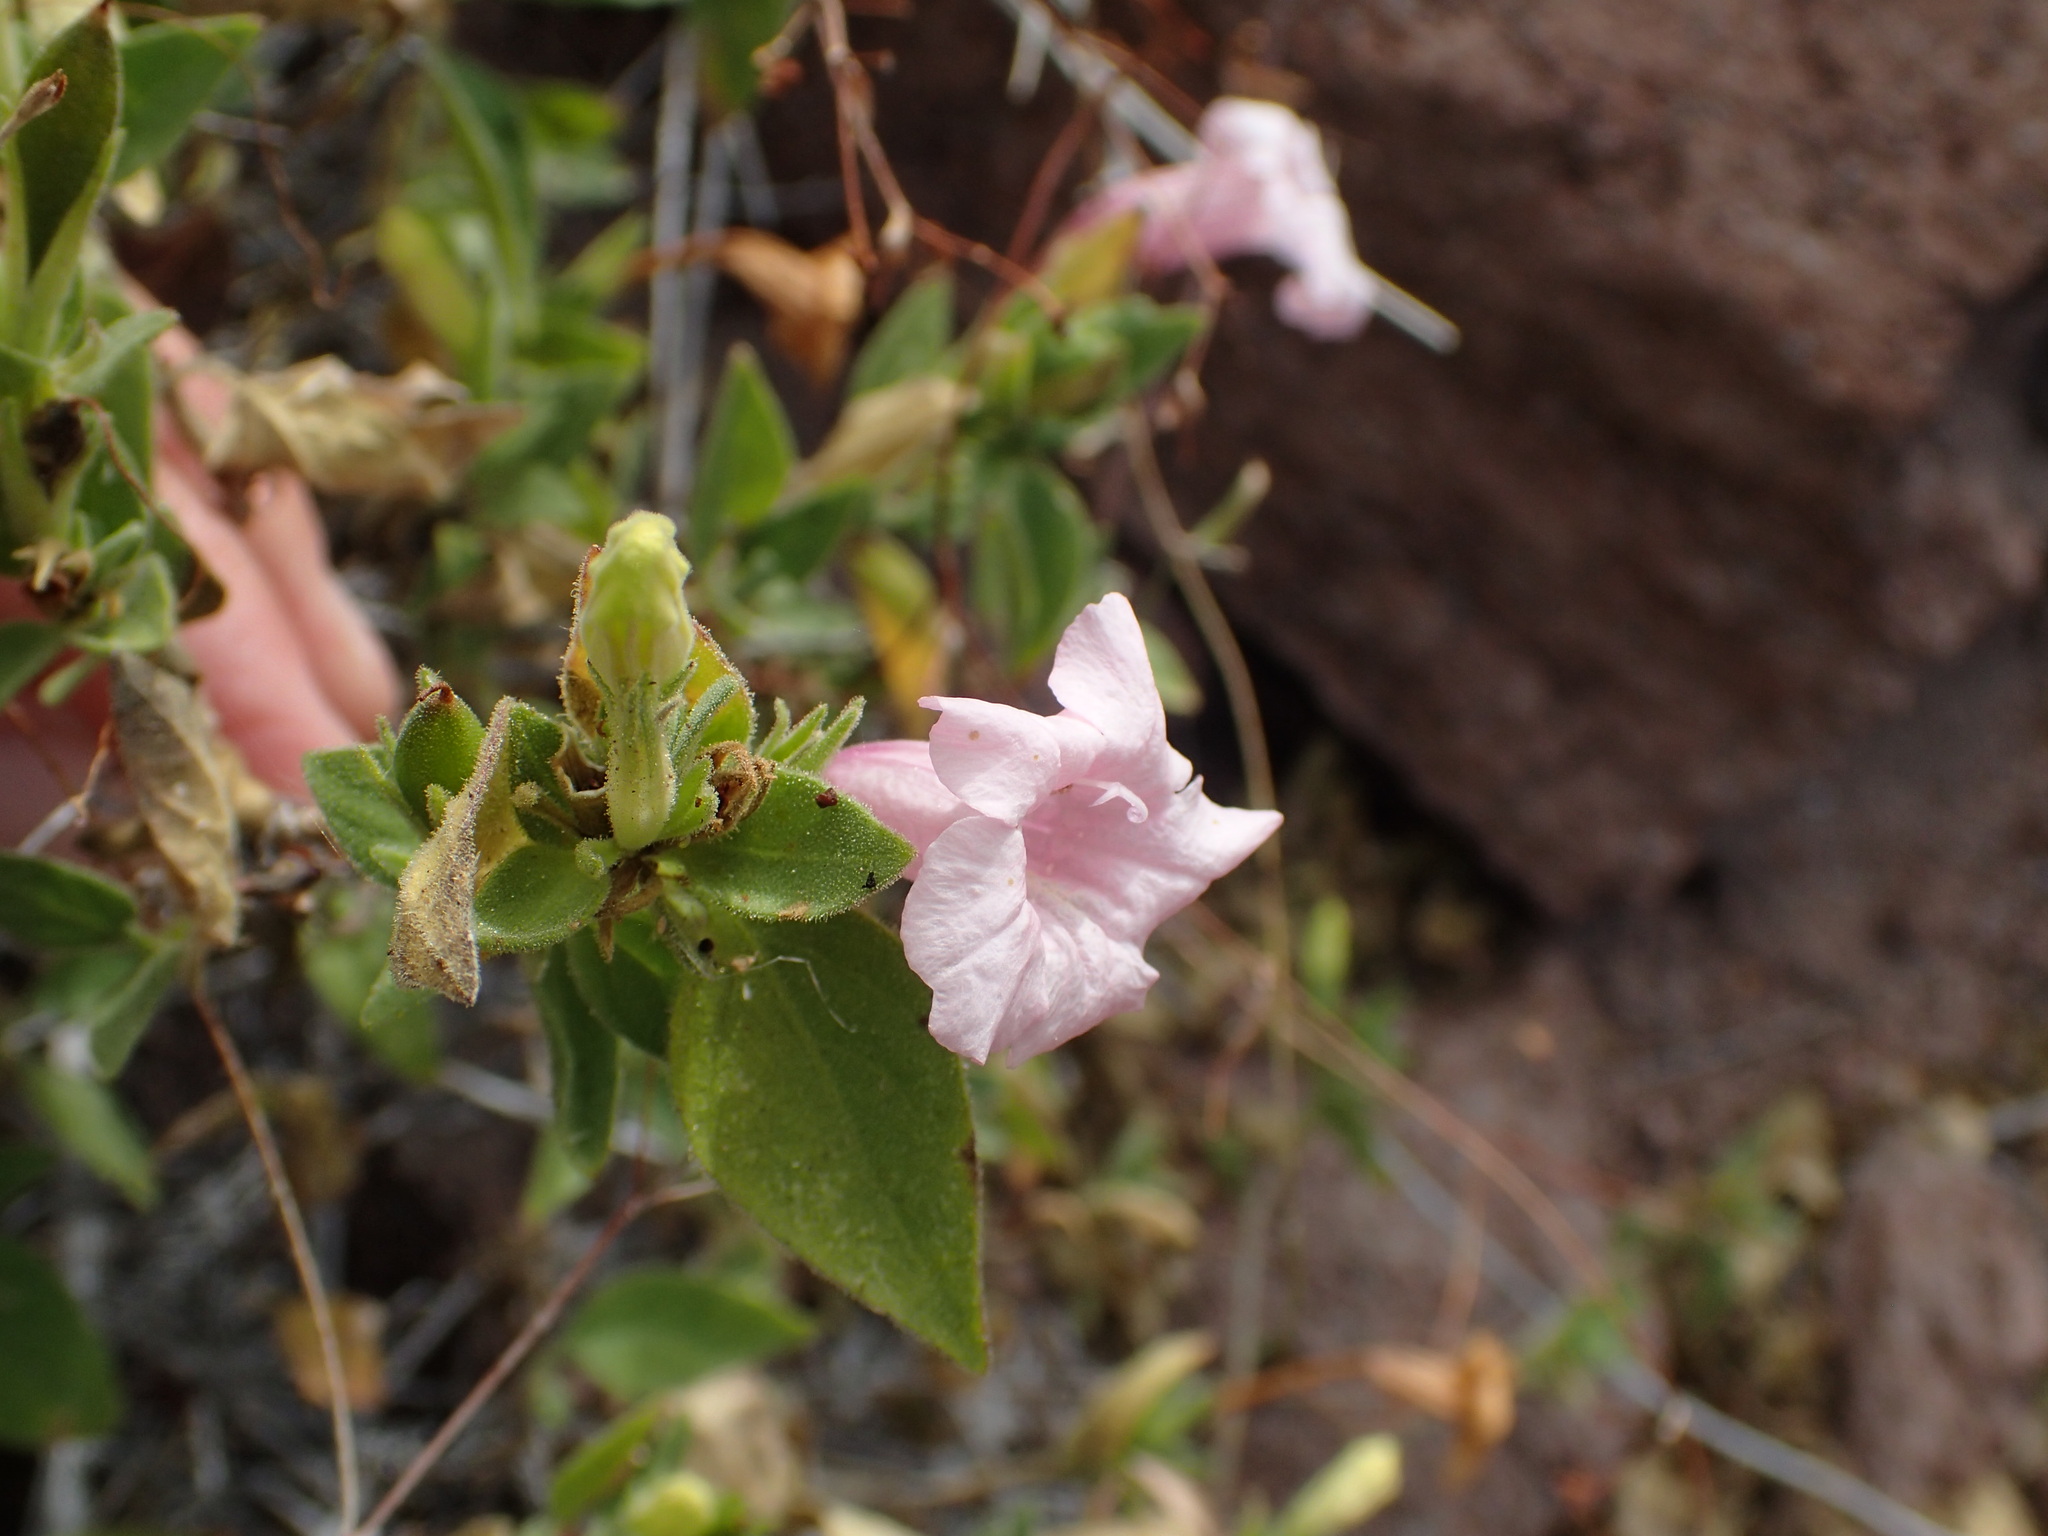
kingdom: Plantae
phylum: Tracheophyta
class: Magnoliopsida
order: Lamiales
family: Acanthaceae
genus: Ruellia
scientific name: Ruellia californica
